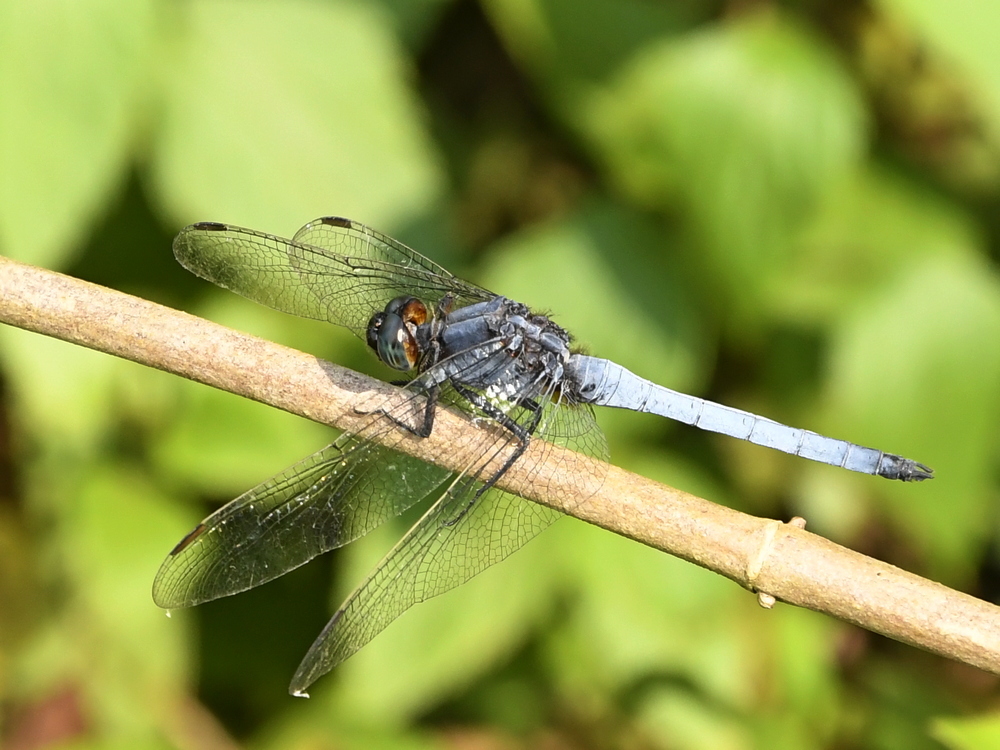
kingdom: Animalia
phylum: Arthropoda
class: Insecta
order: Odonata
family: Libellulidae
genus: Orthetrum
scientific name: Orthetrum luzonicum
